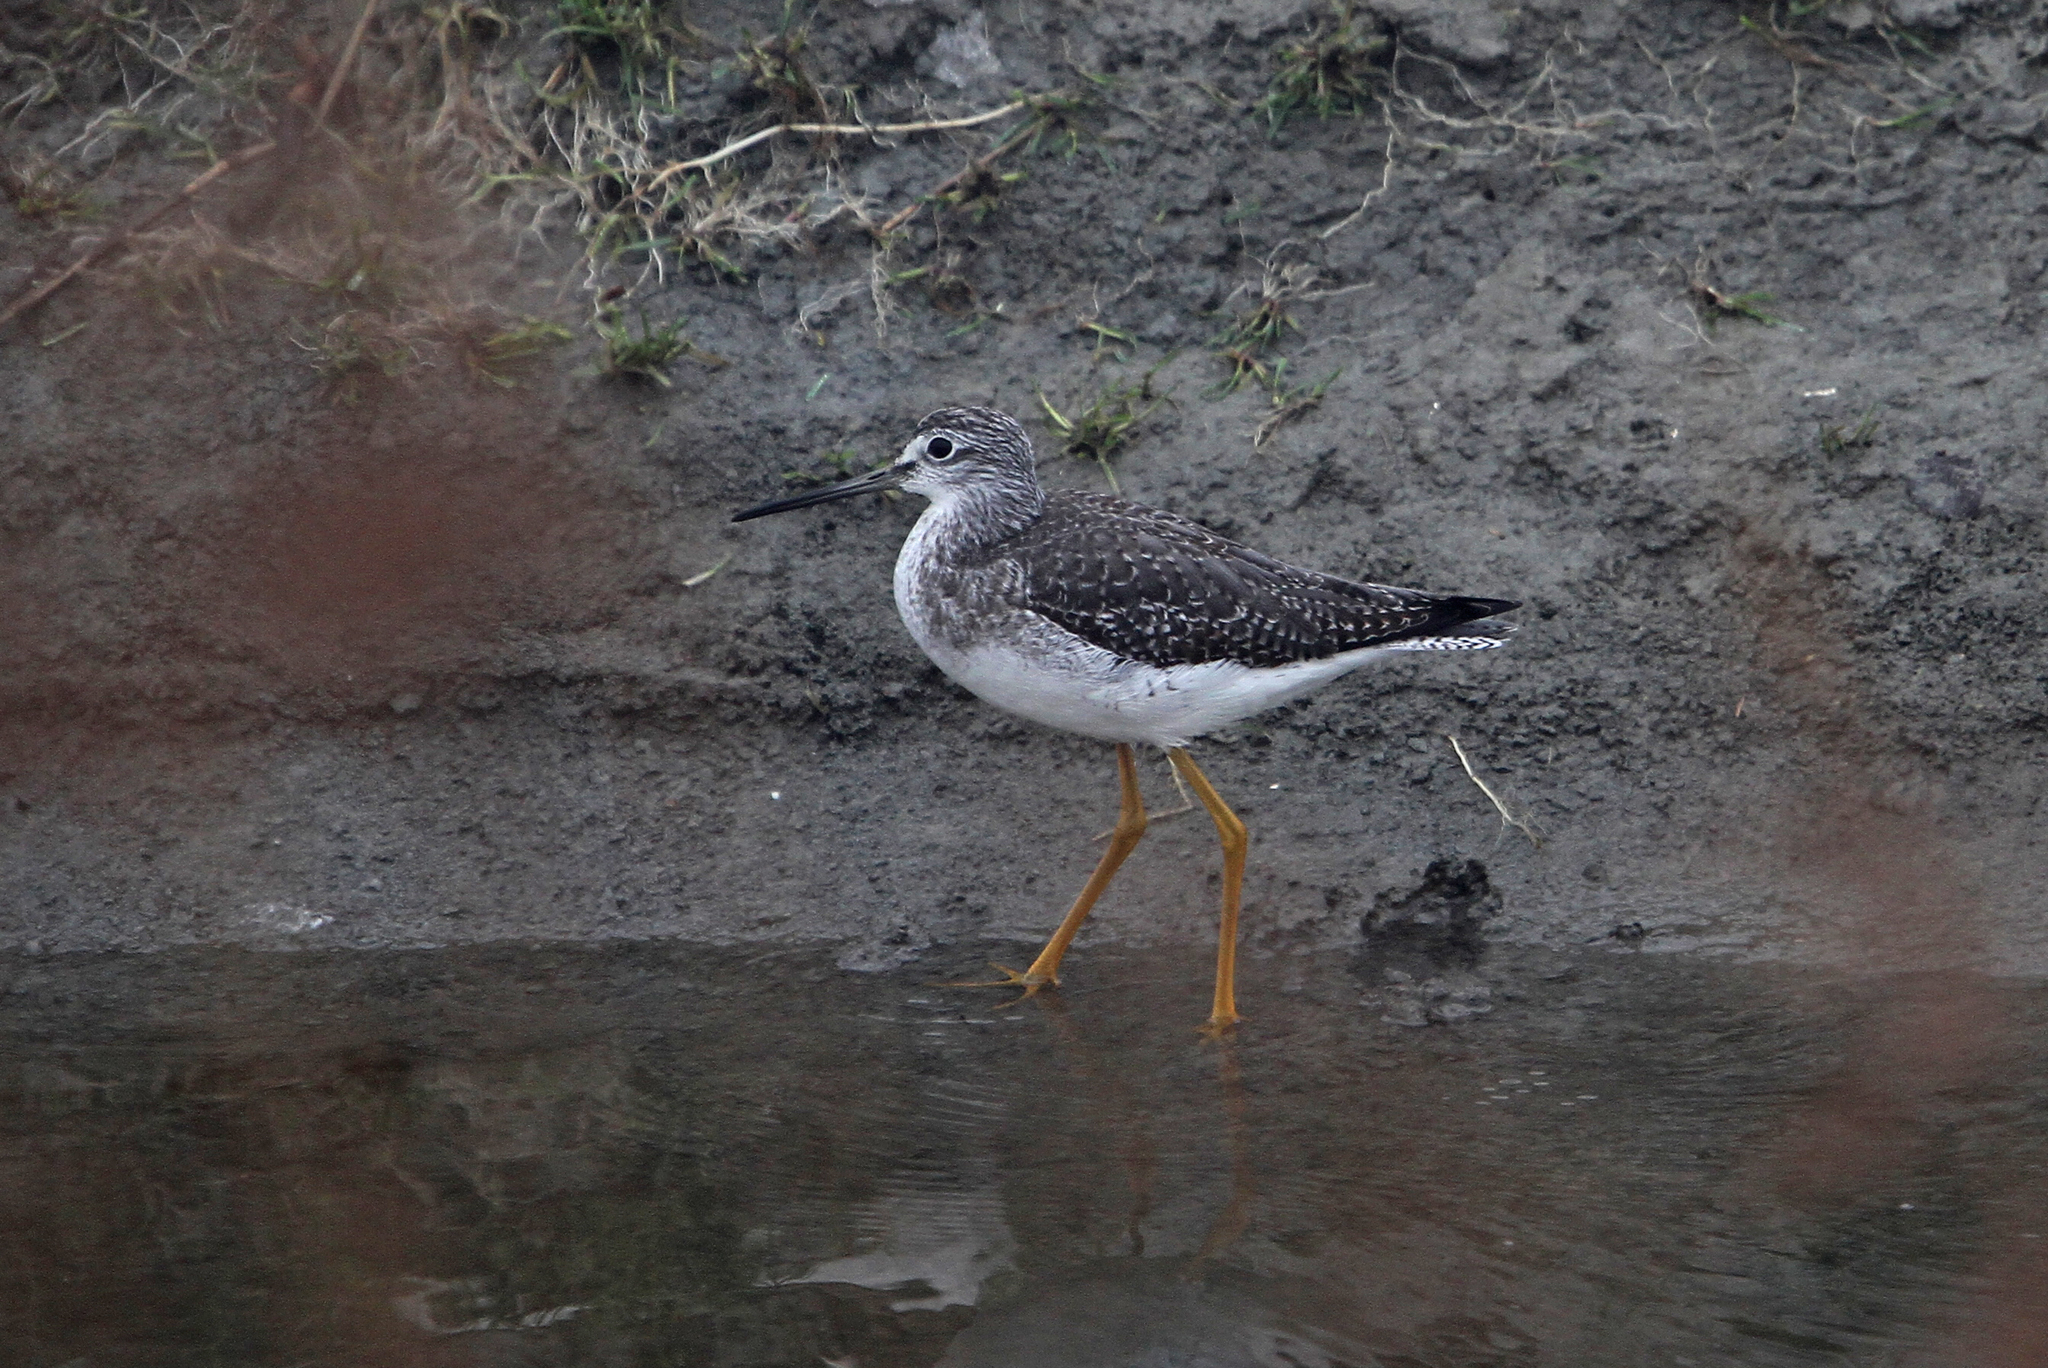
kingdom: Animalia
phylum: Chordata
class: Aves
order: Charadriiformes
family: Scolopacidae
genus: Tringa
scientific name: Tringa melanoleuca
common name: Greater yellowlegs
